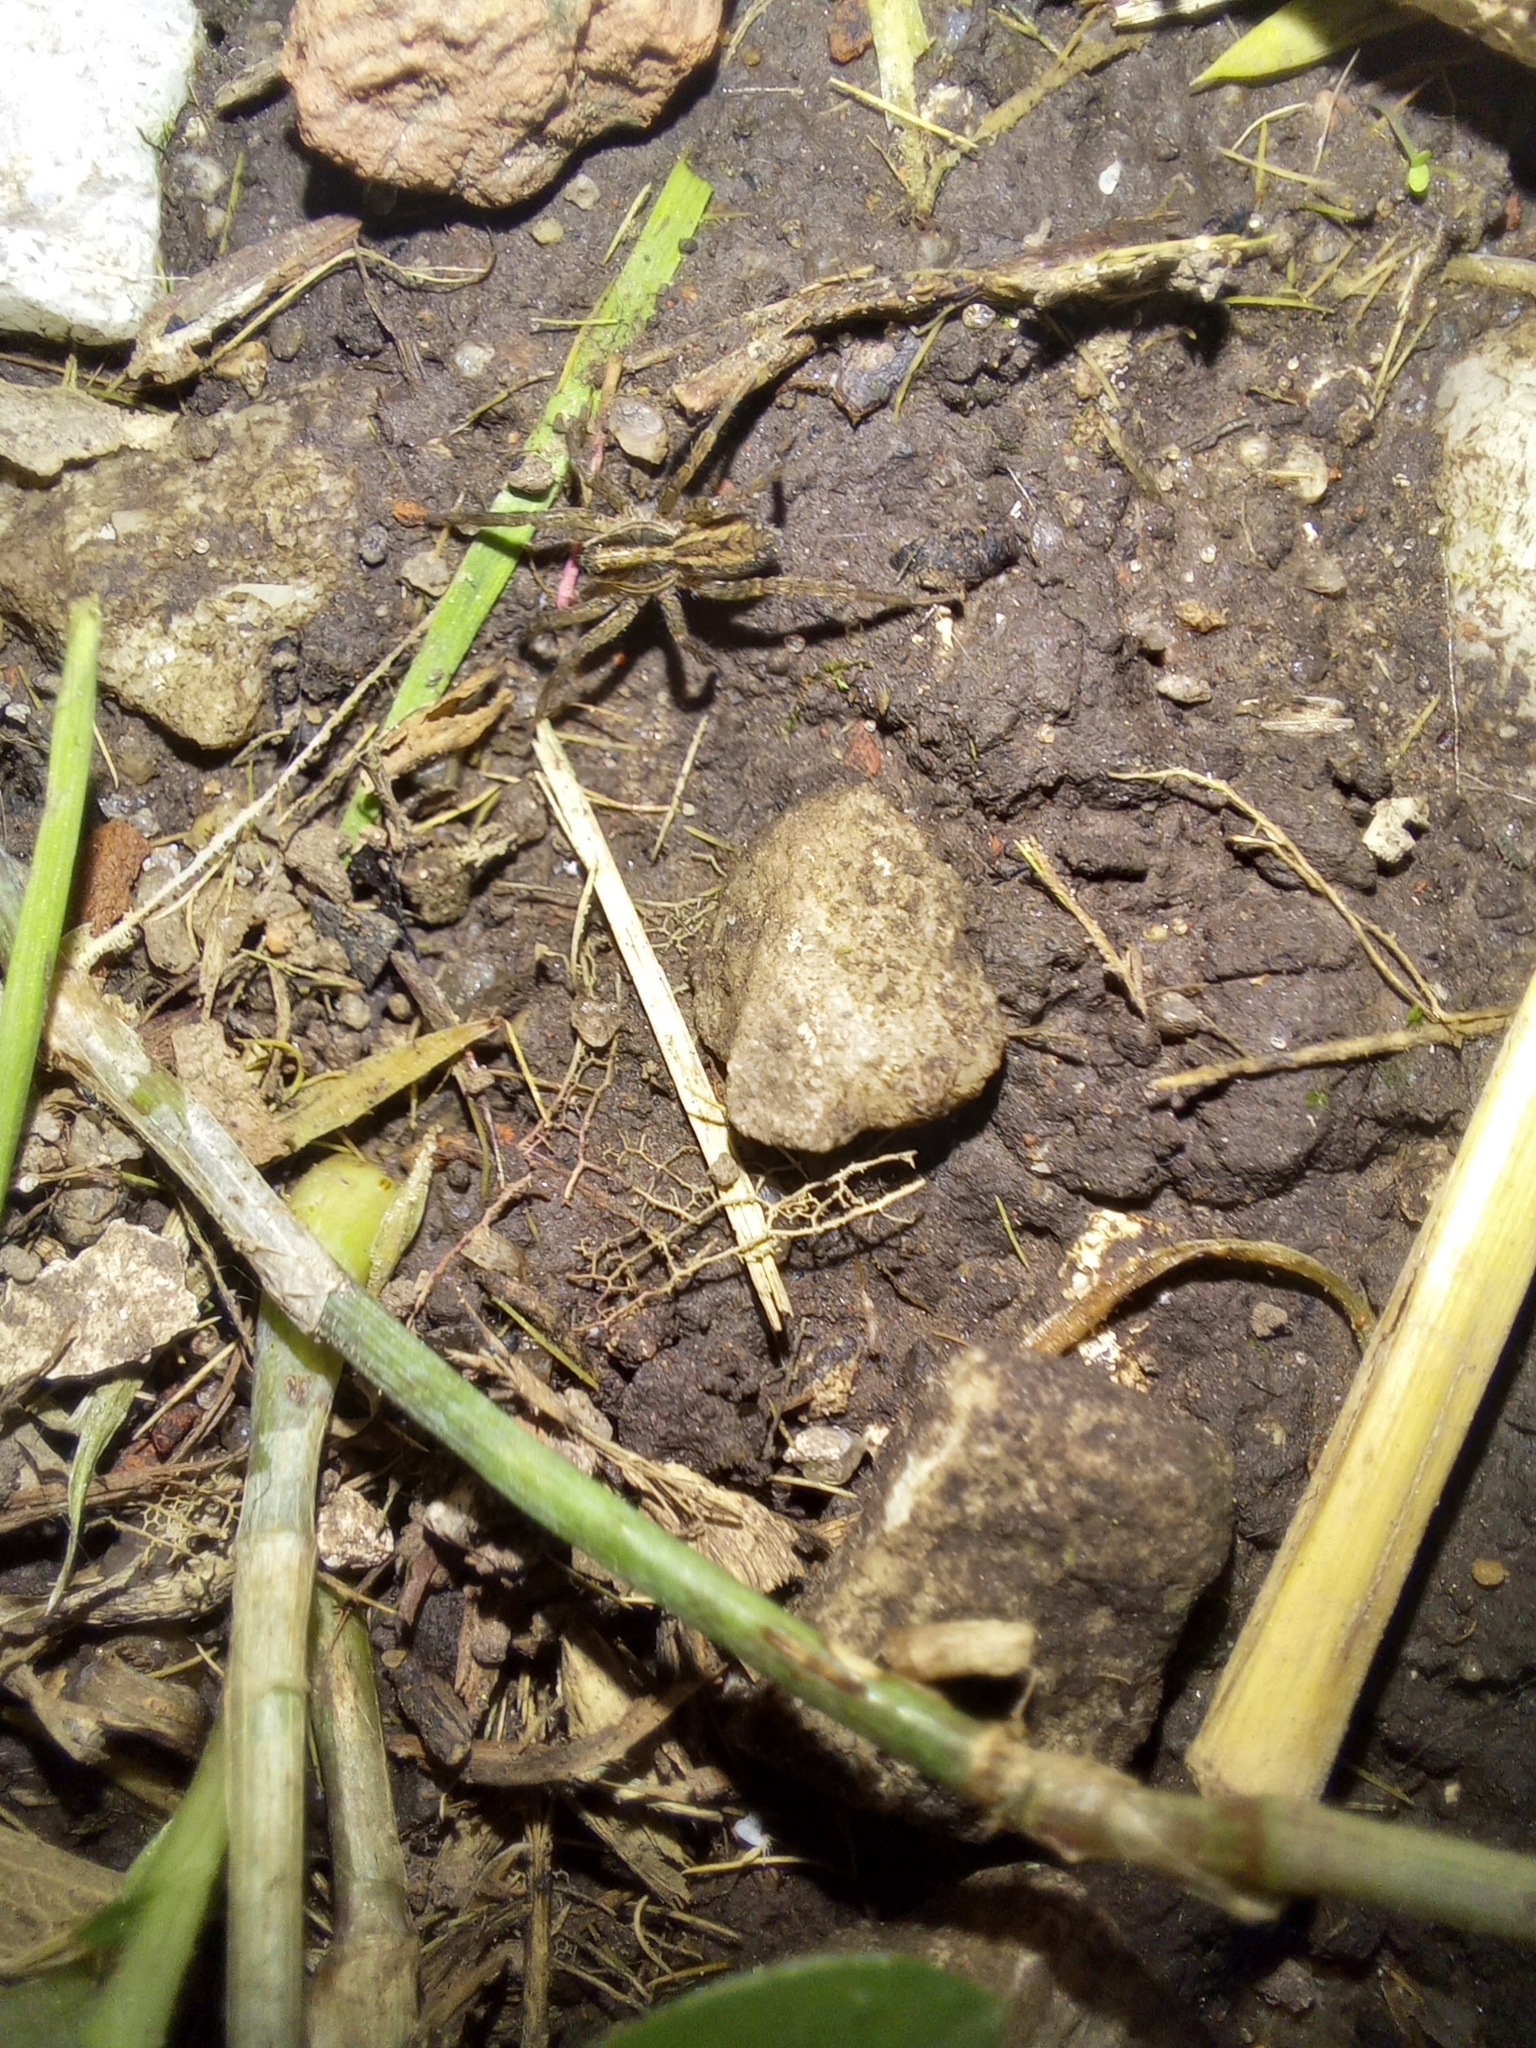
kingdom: Animalia
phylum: Arthropoda
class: Arachnida
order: Araneae
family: Lycosidae
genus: Alopecosa
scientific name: Alopecosa moesta
